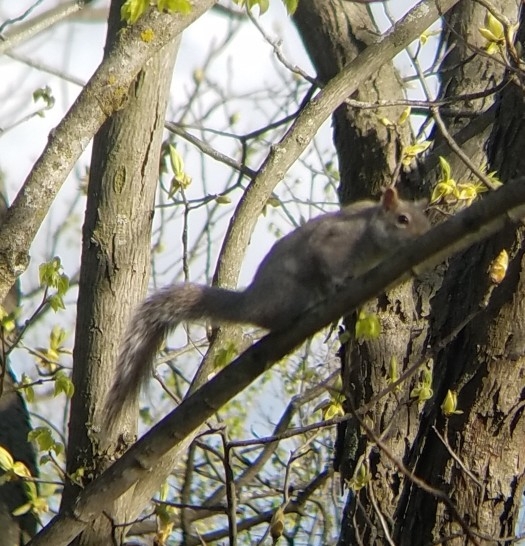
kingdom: Animalia
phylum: Chordata
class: Mammalia
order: Rodentia
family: Sciuridae
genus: Sciurus
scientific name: Sciurus carolinensis
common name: Eastern gray squirrel
